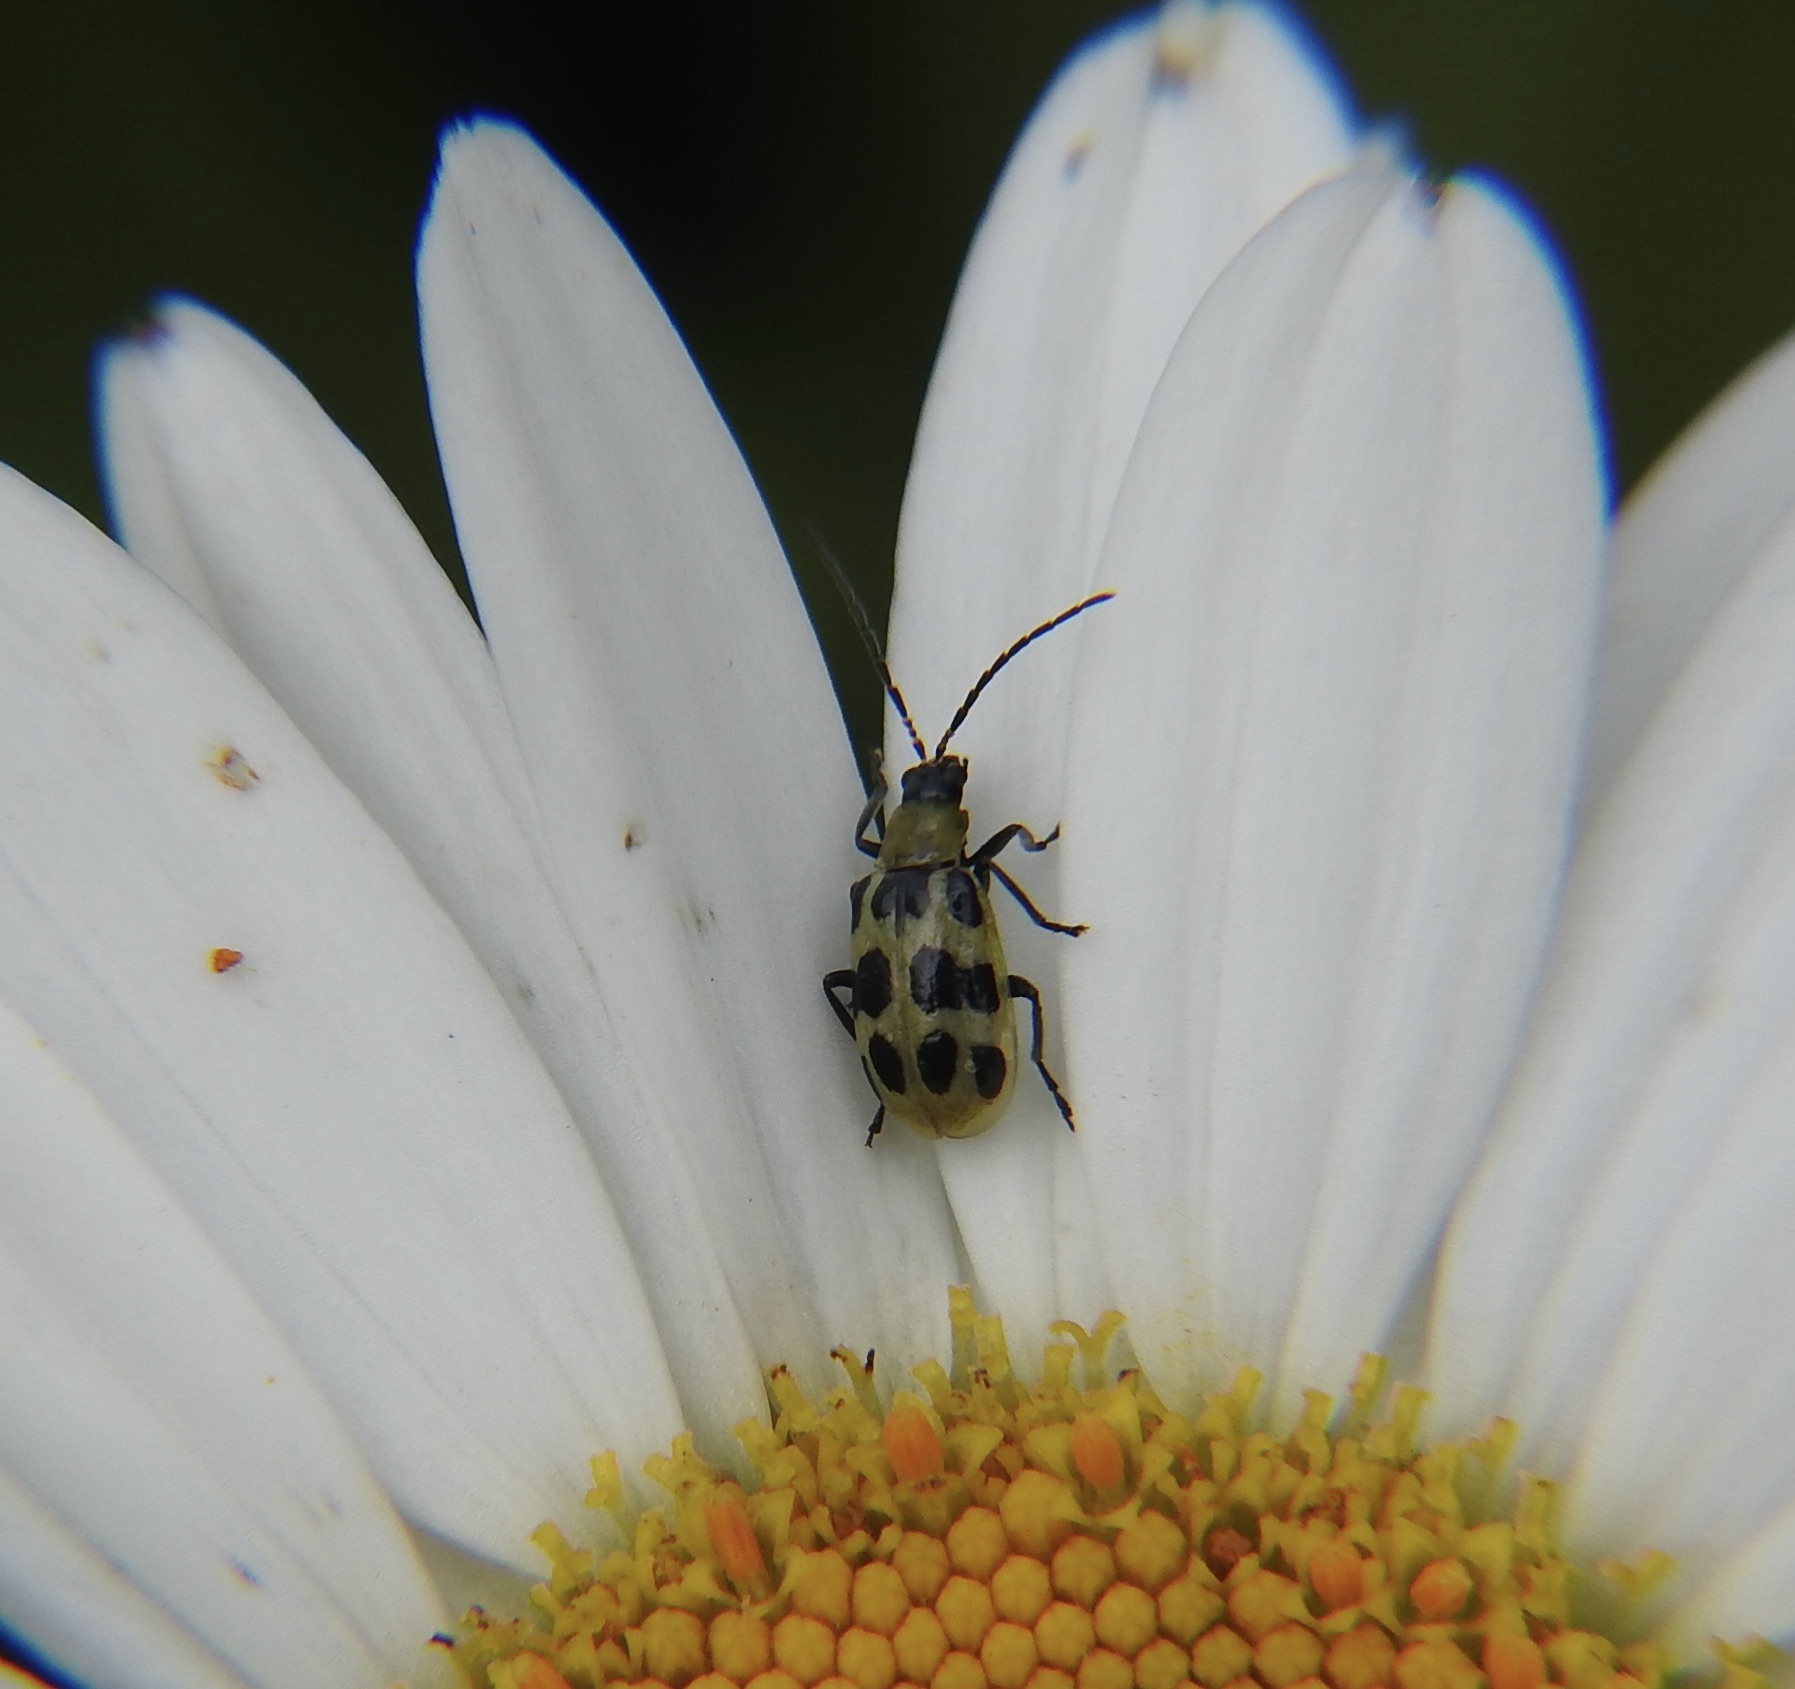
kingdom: Animalia
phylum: Arthropoda
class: Insecta
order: Coleoptera
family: Chrysomelidae
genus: Diabrotica
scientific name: Diabrotica undecimpunctata
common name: Spotted cucumber beetle
